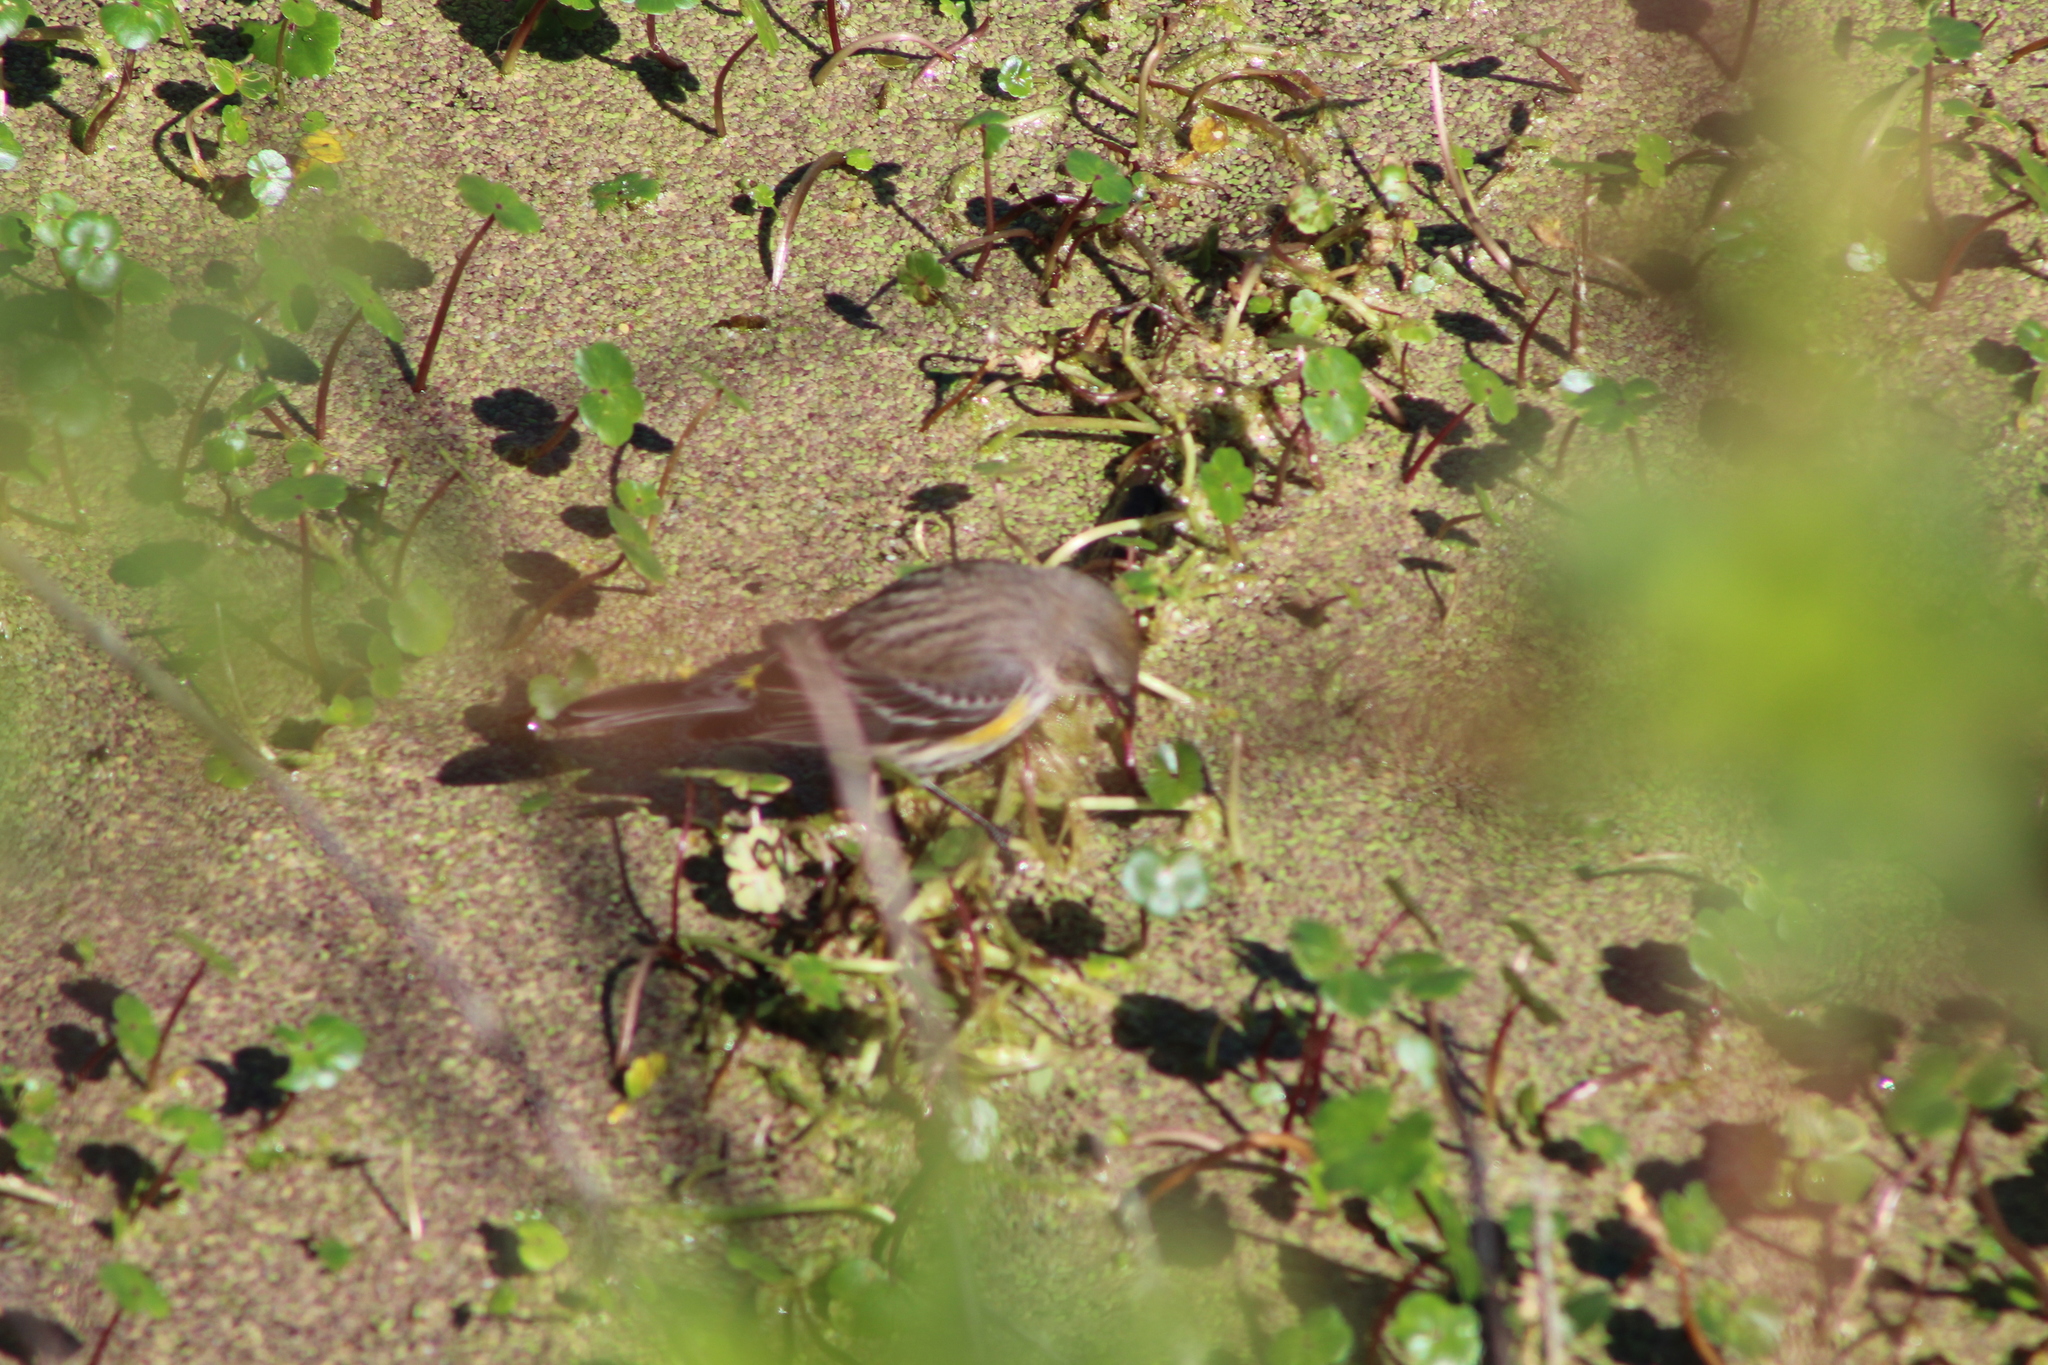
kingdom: Animalia
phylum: Chordata
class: Aves
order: Passeriformes
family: Parulidae
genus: Setophaga
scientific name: Setophaga coronata
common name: Myrtle warbler
